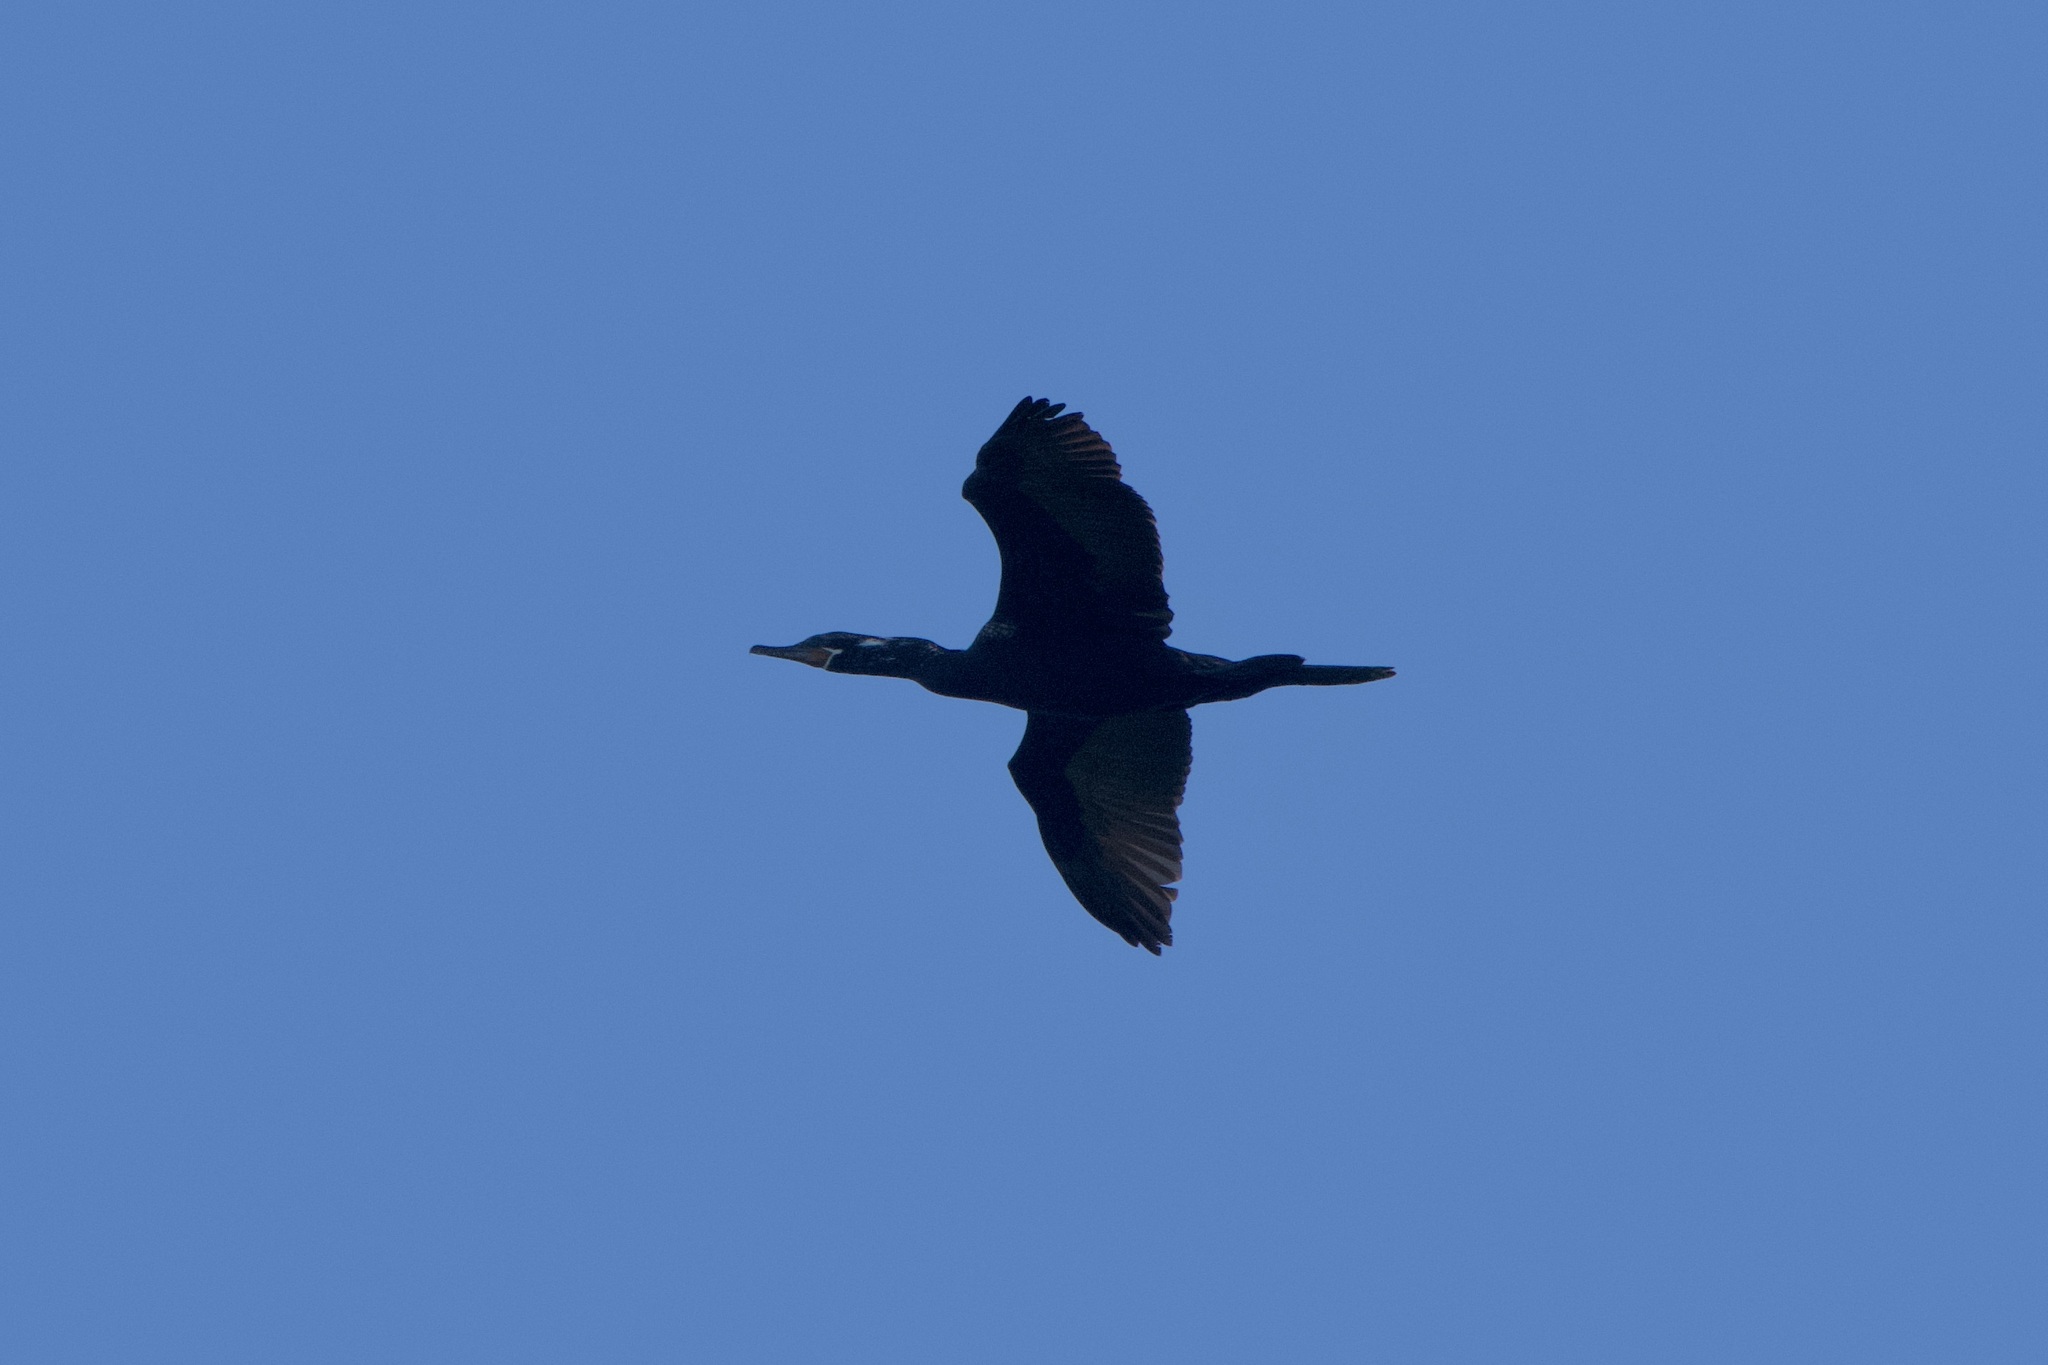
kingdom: Animalia
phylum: Chordata
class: Aves
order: Suliformes
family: Phalacrocoracidae
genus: Phalacrocorax
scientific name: Phalacrocorax brasilianus
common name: Neotropic cormorant
